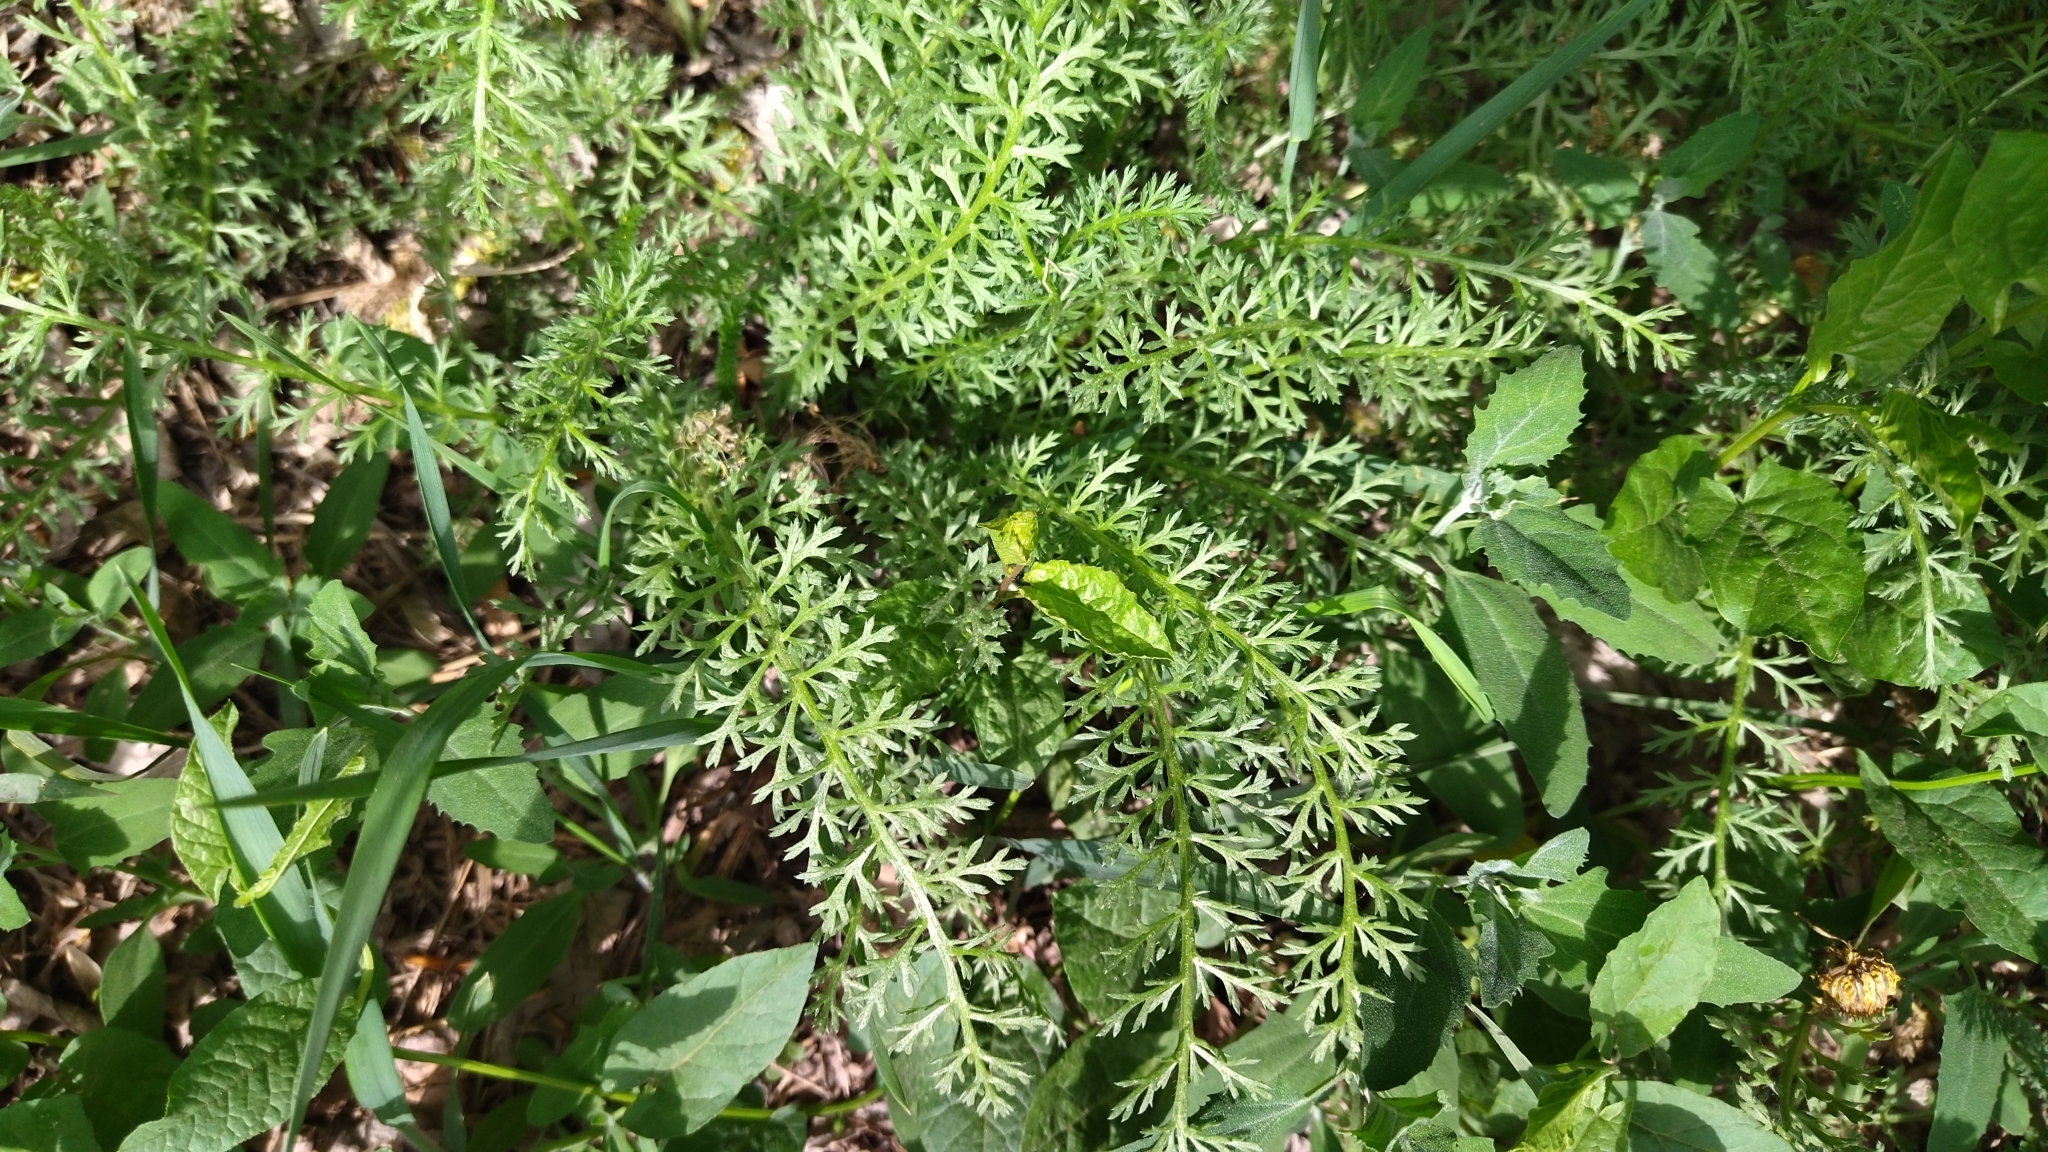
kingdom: Plantae
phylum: Tracheophyta
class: Magnoliopsida
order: Asterales
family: Asteraceae
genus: Achillea
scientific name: Achillea millefolium
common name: Yarrow
